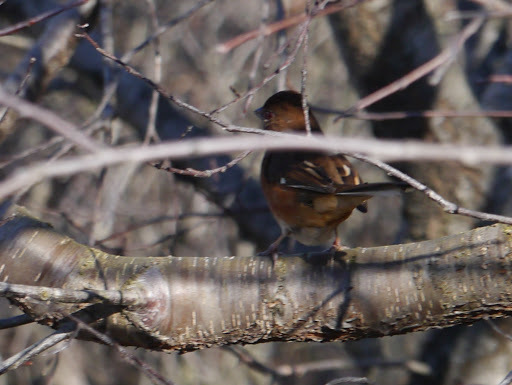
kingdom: Animalia
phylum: Chordata
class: Aves
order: Passeriformes
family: Passerellidae
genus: Pipilo
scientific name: Pipilo erythrophthalmus
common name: Eastern towhee
